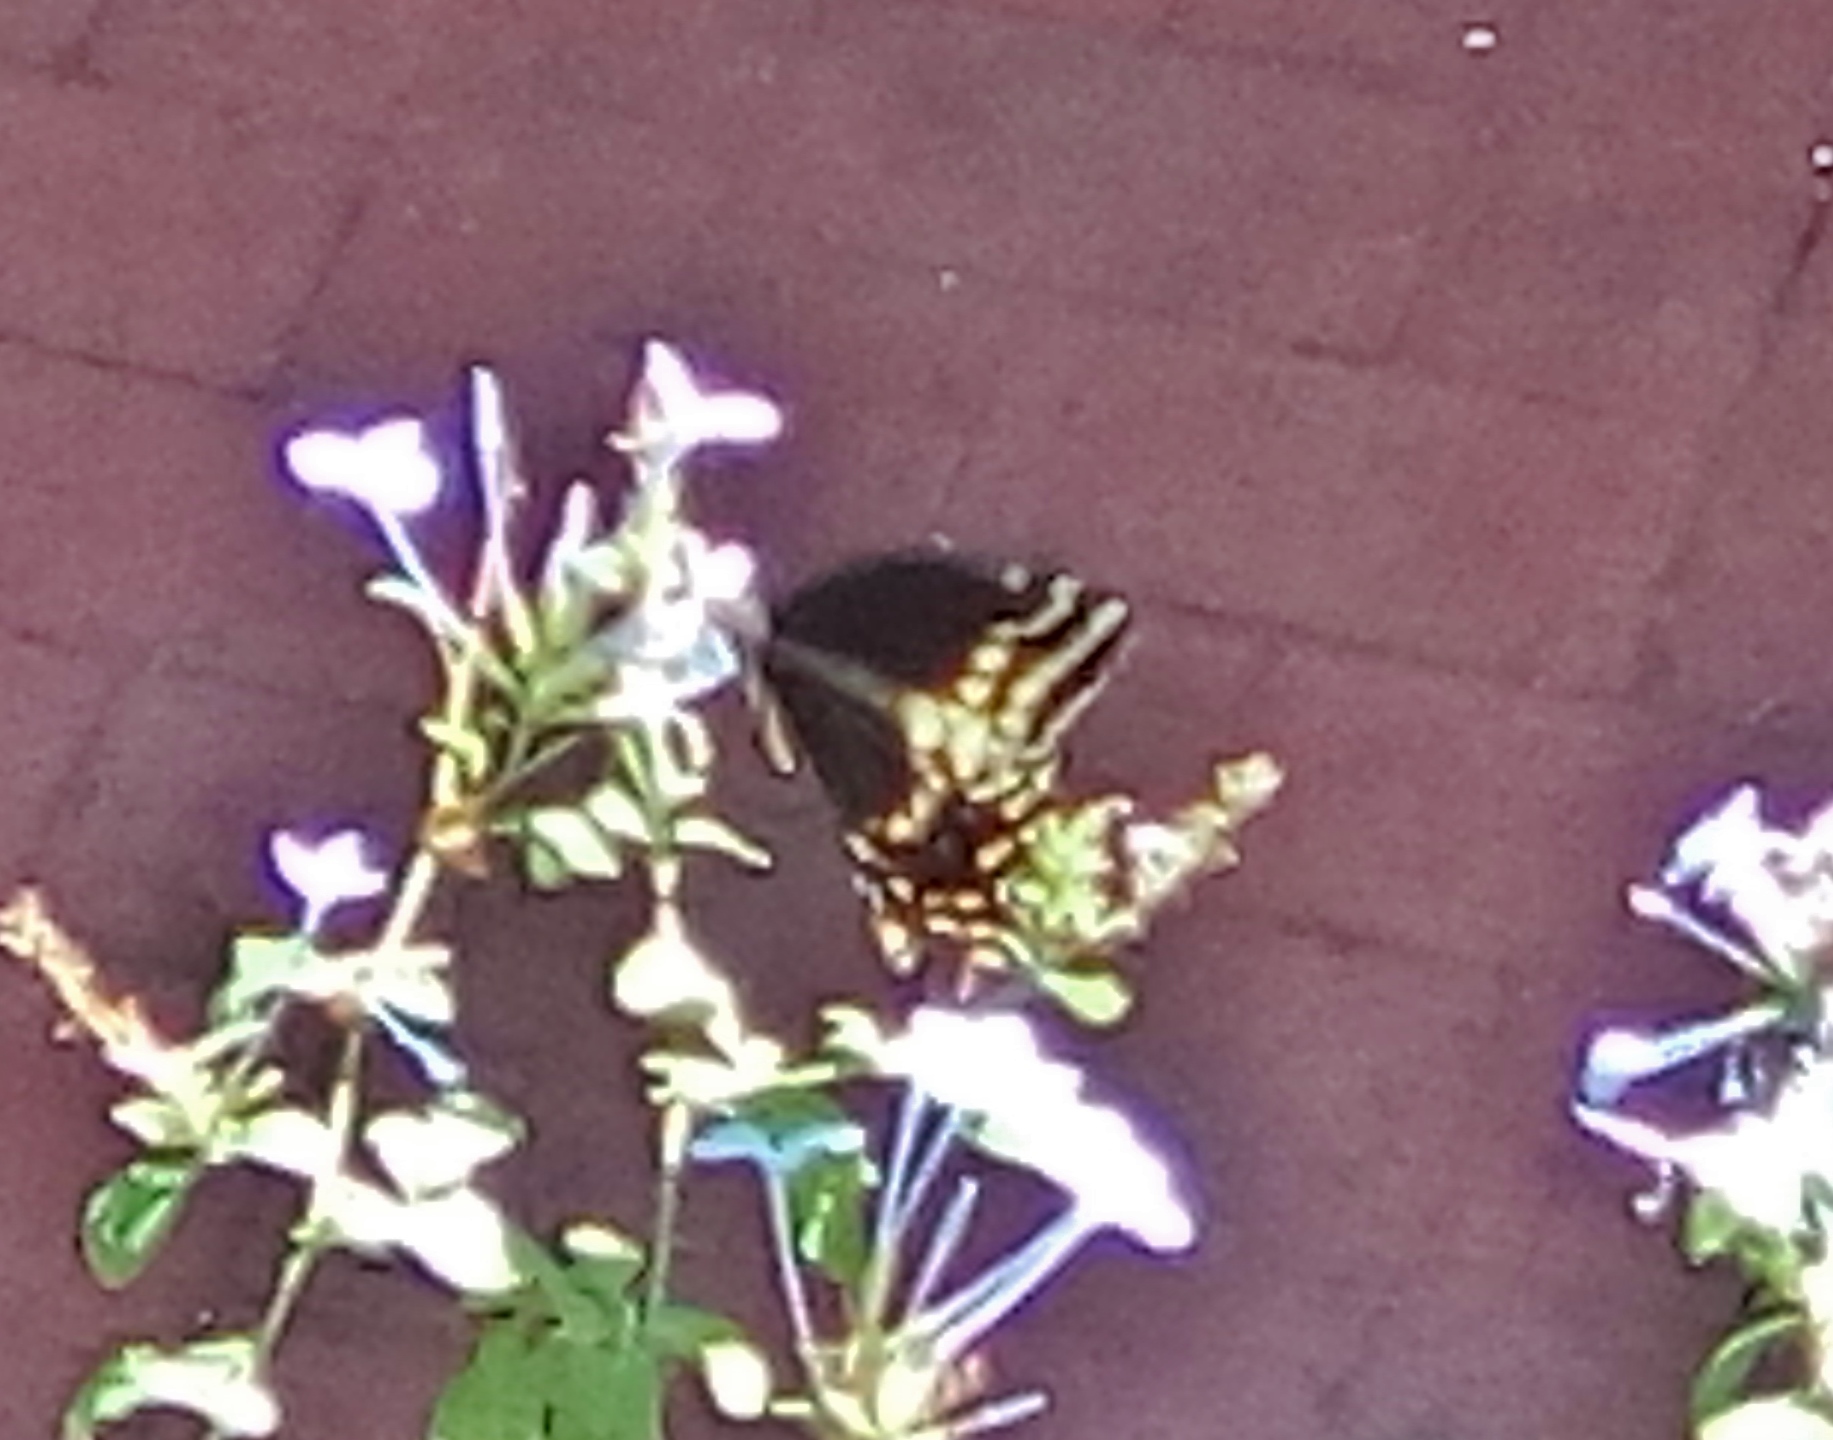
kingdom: Animalia
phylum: Arthropoda
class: Insecta
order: Lepidoptera
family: Papilionidae
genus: Papilio
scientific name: Papilio palamedes
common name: Palamedes swallowtail
